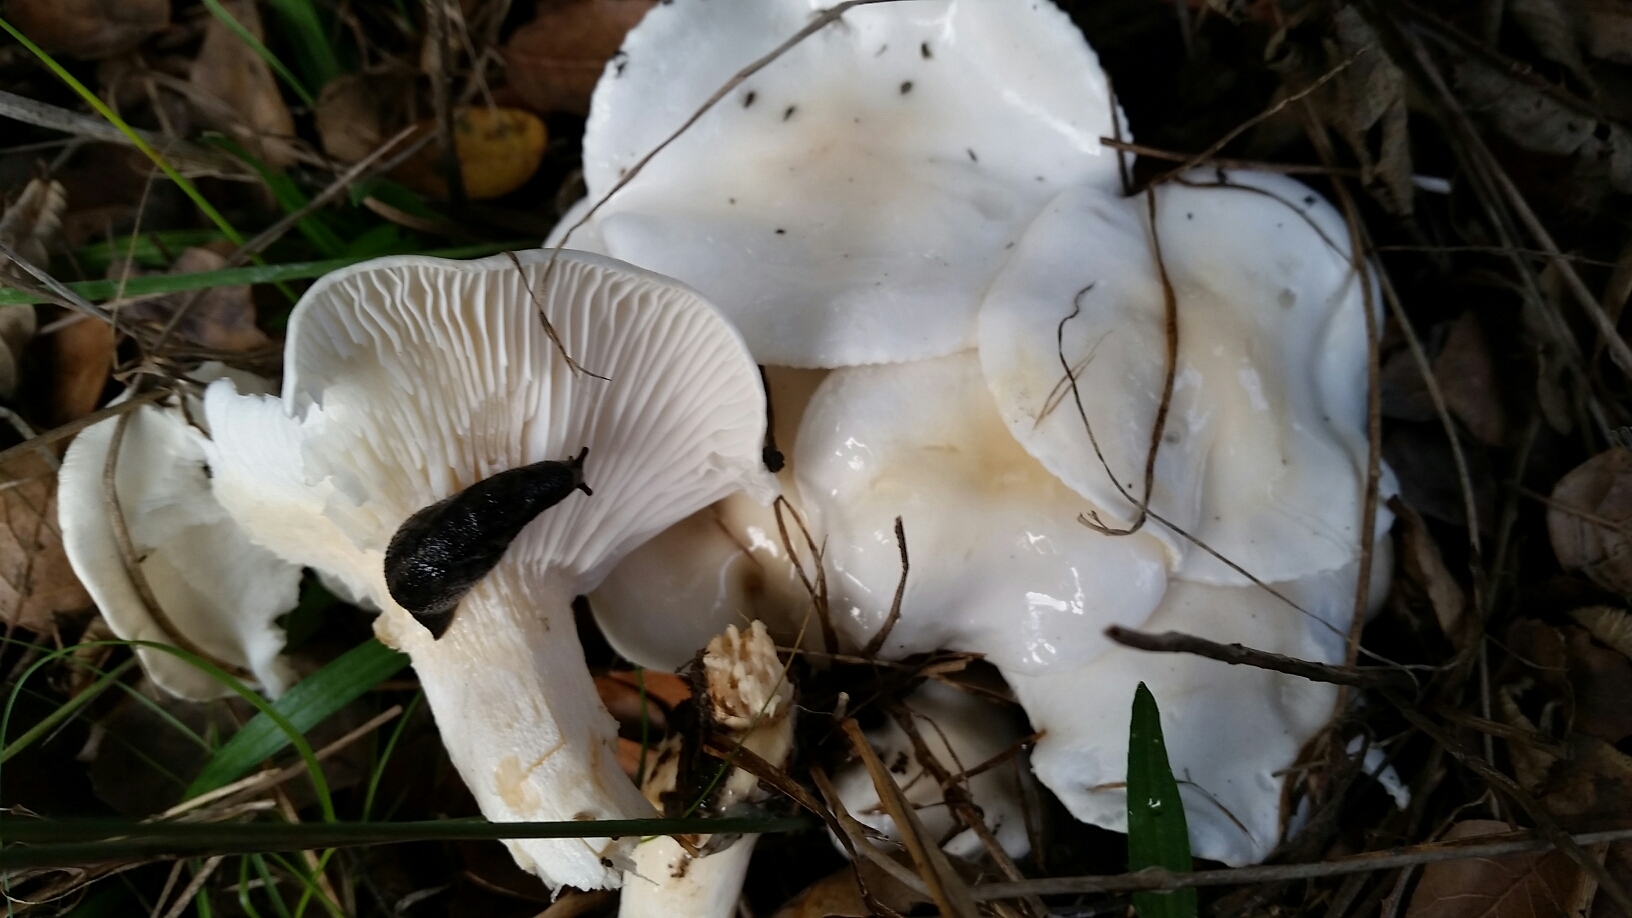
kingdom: Fungi
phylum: Basidiomycota
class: Agaricomycetes
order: Agaricales
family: Hygrophoraceae
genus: Hygrophorus
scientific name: Hygrophorus eburneus
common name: Ivory wax-cap
